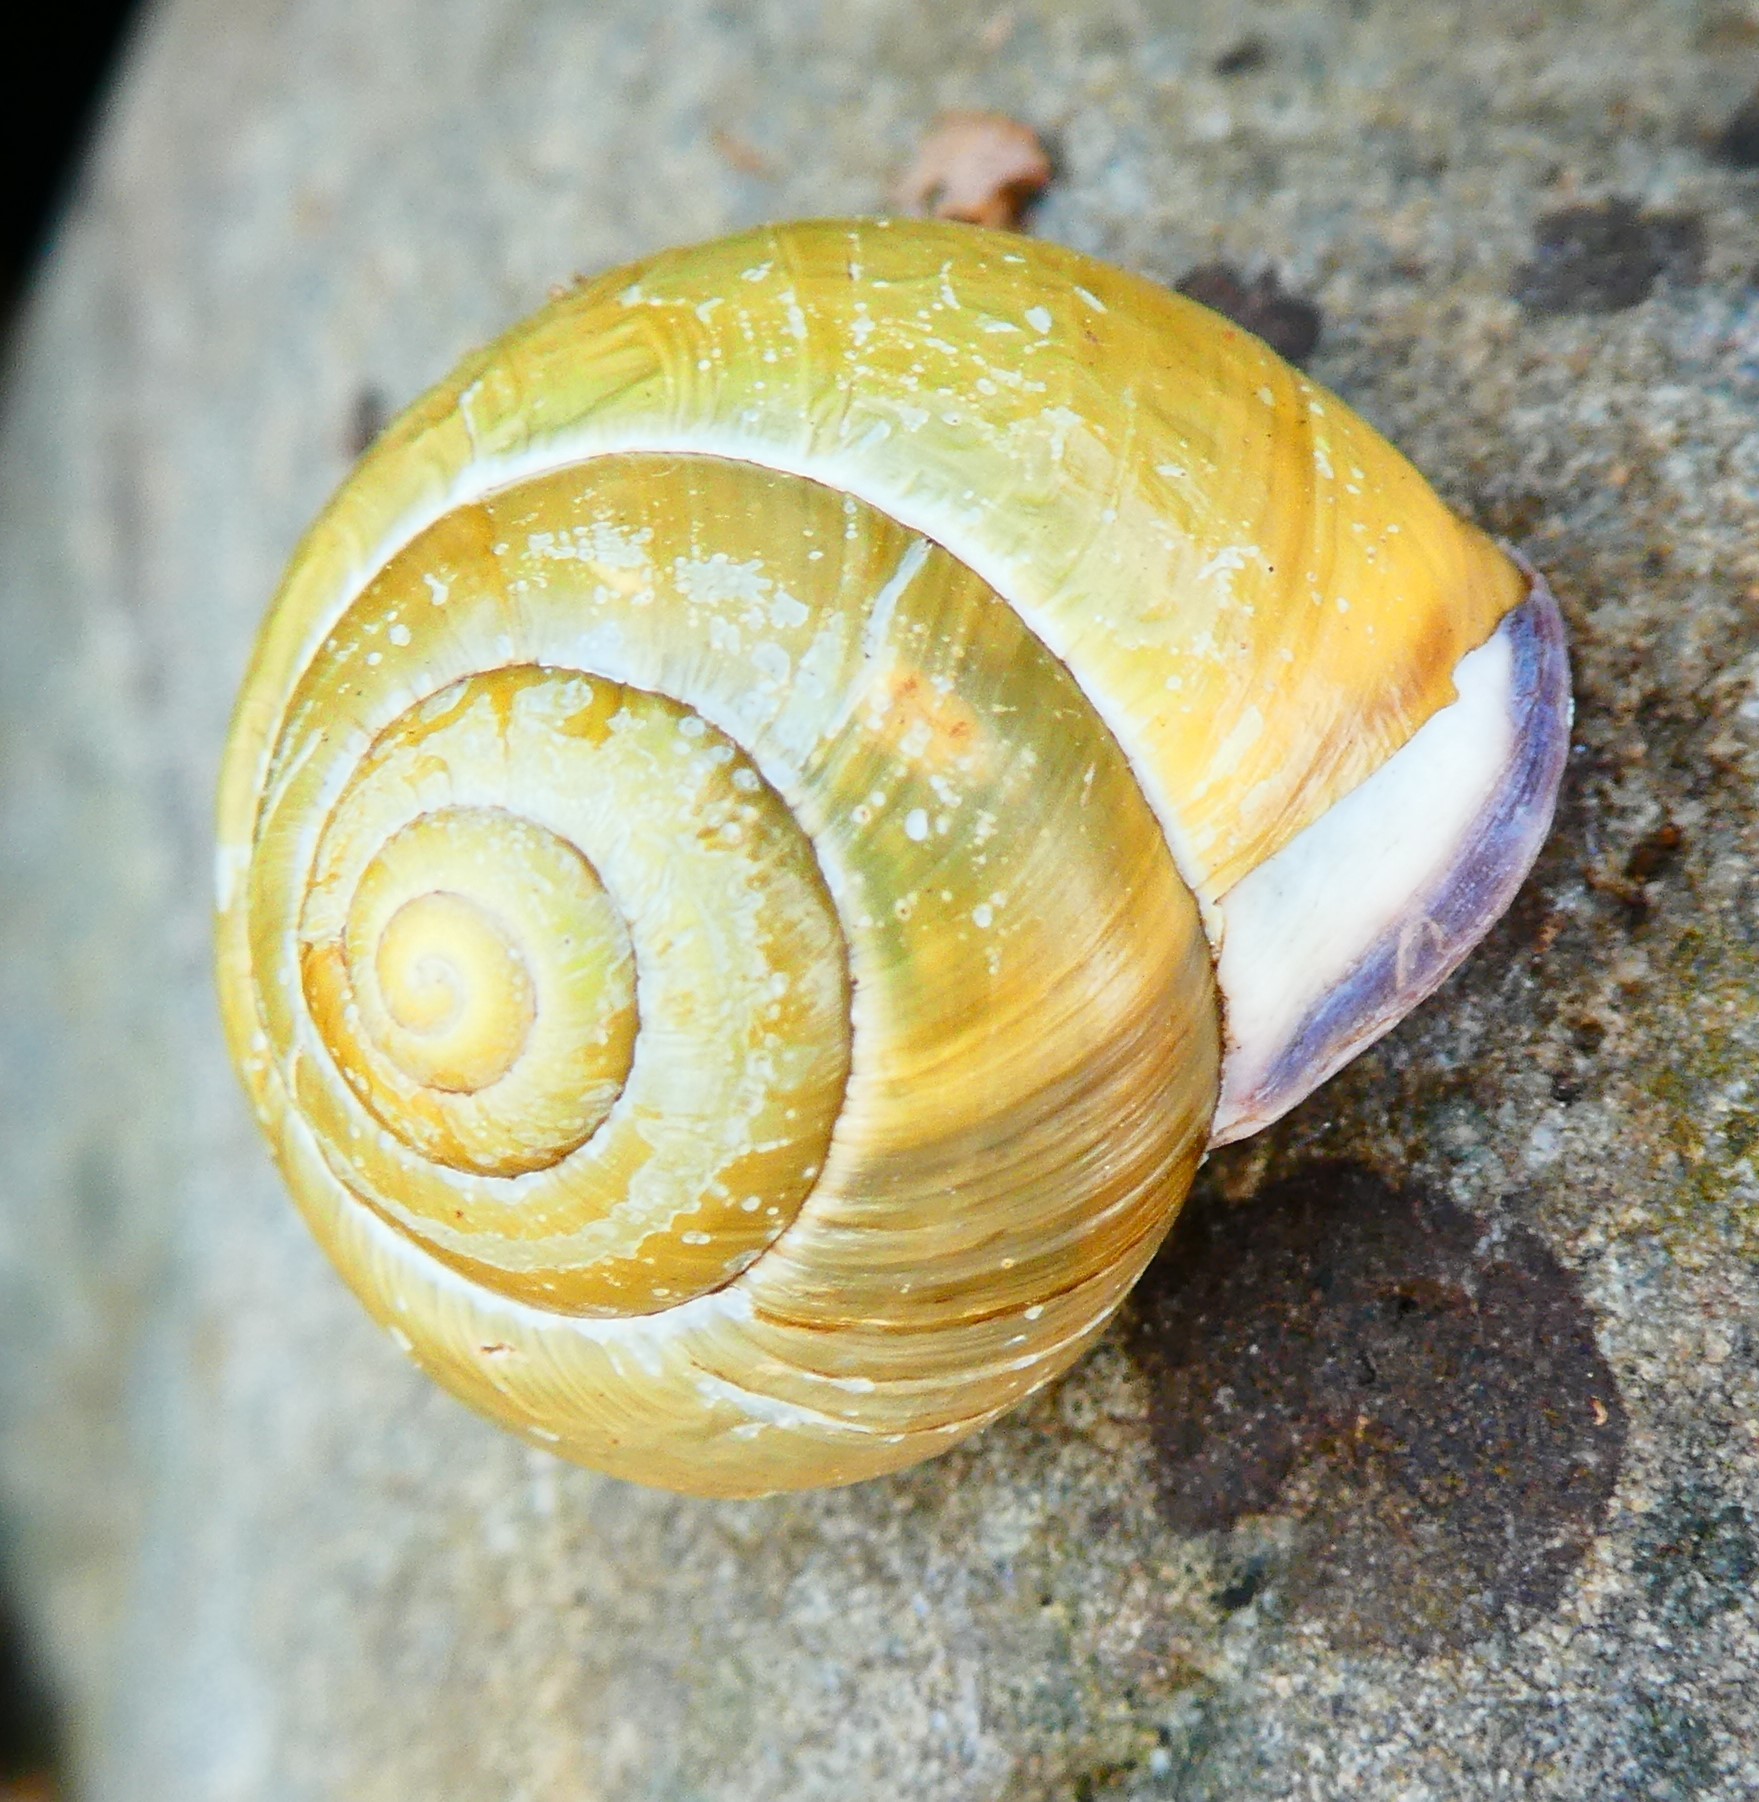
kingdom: Animalia
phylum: Mollusca
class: Gastropoda
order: Stylommatophora
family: Helicidae
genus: Cepaea
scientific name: Cepaea nemoralis
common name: Grovesnail
